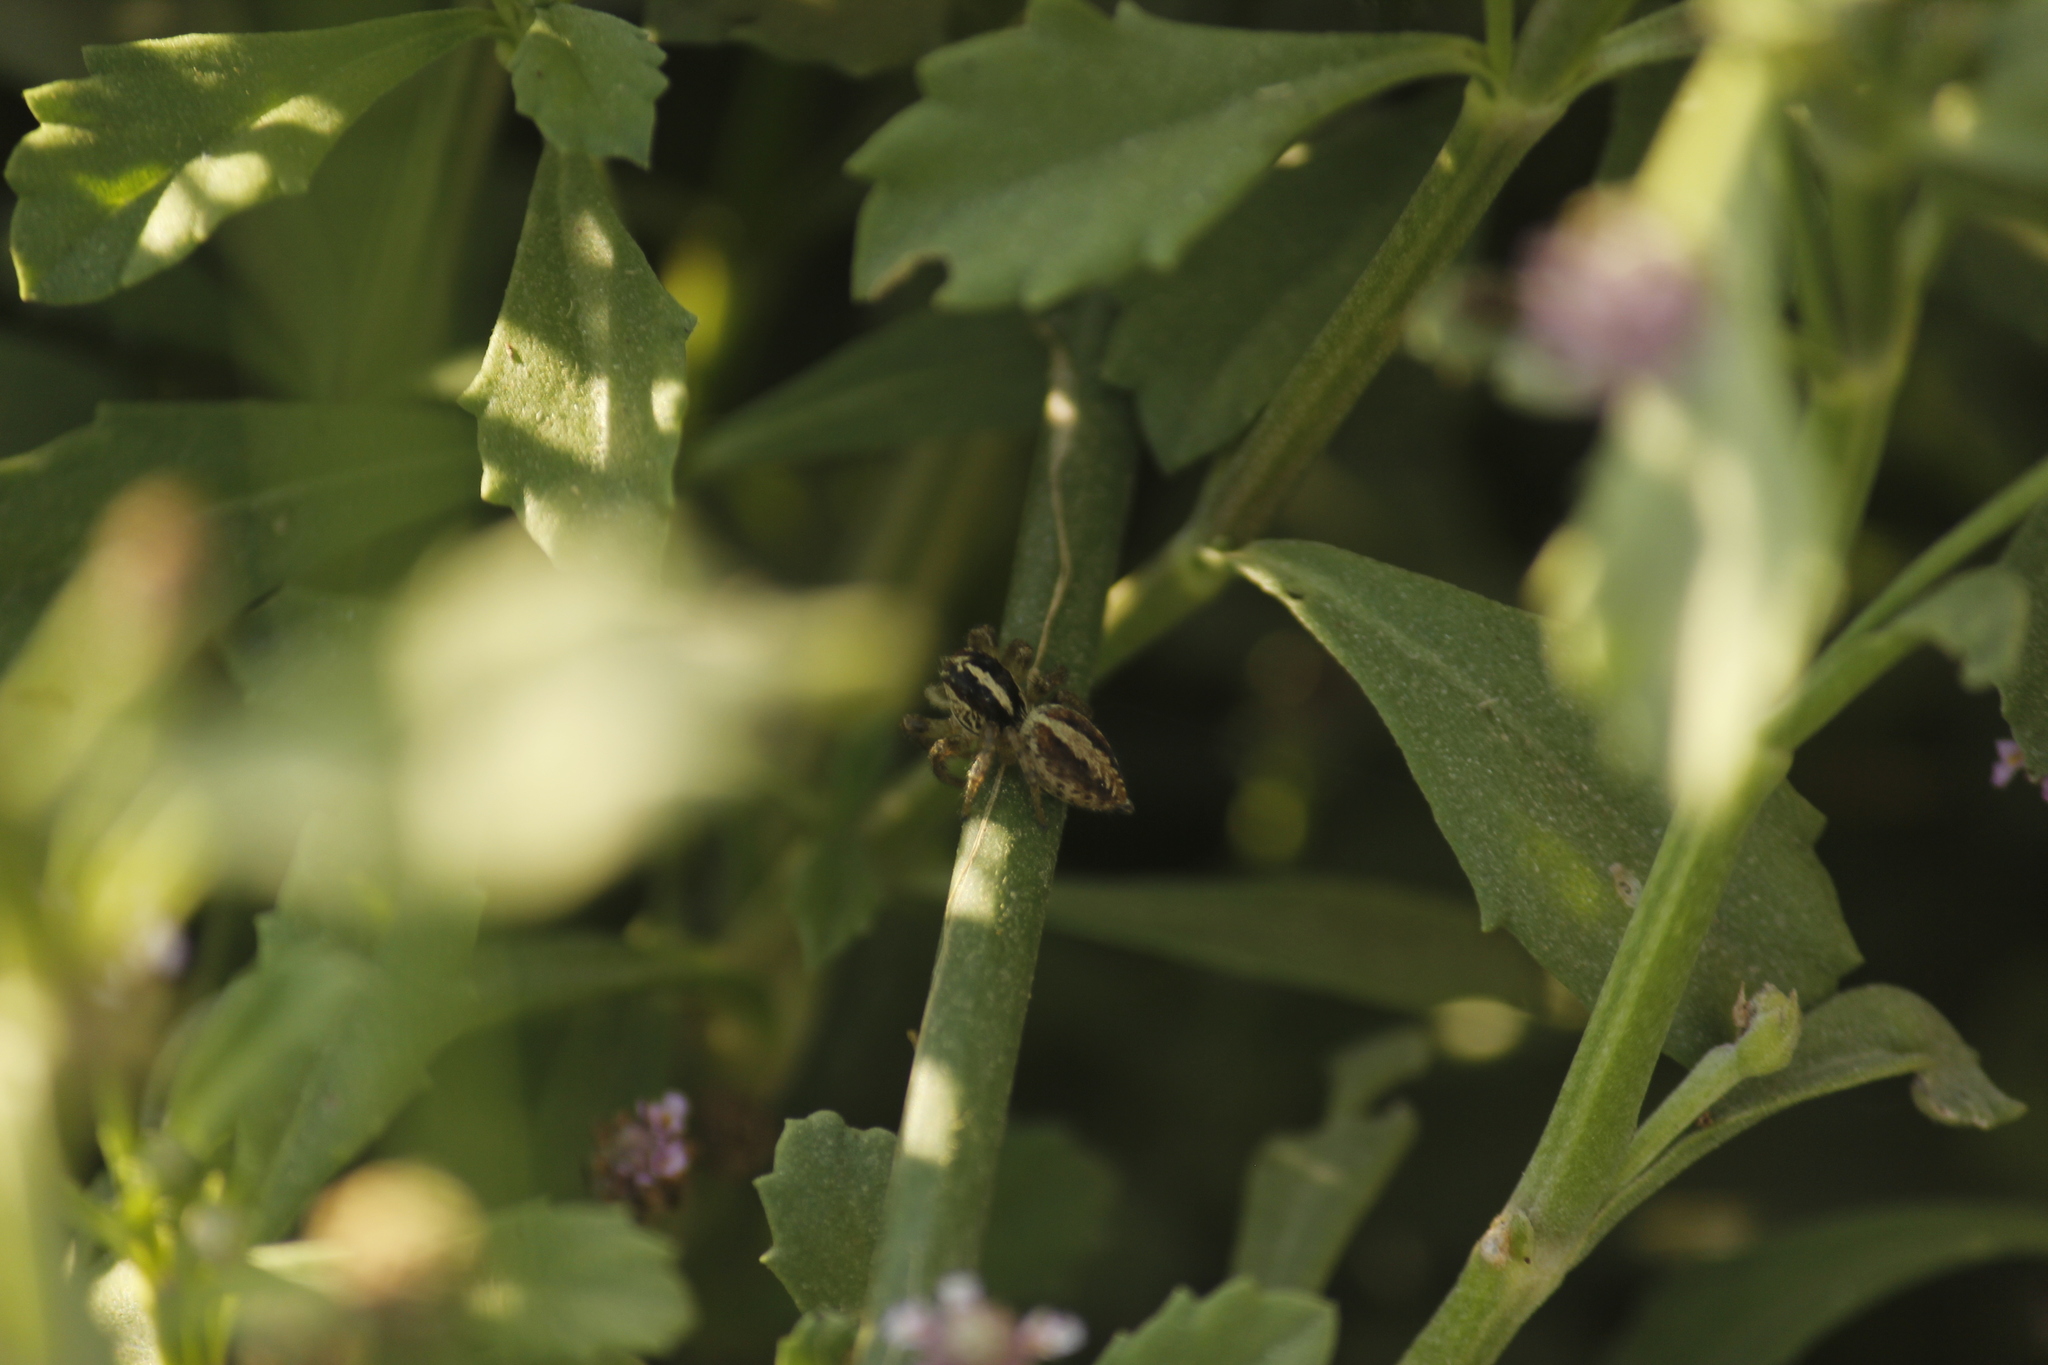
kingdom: Animalia
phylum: Arthropoda
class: Arachnida
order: Araneae
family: Salticidae
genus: Frigga
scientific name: Frigga crocuta
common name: Jumping spiders
